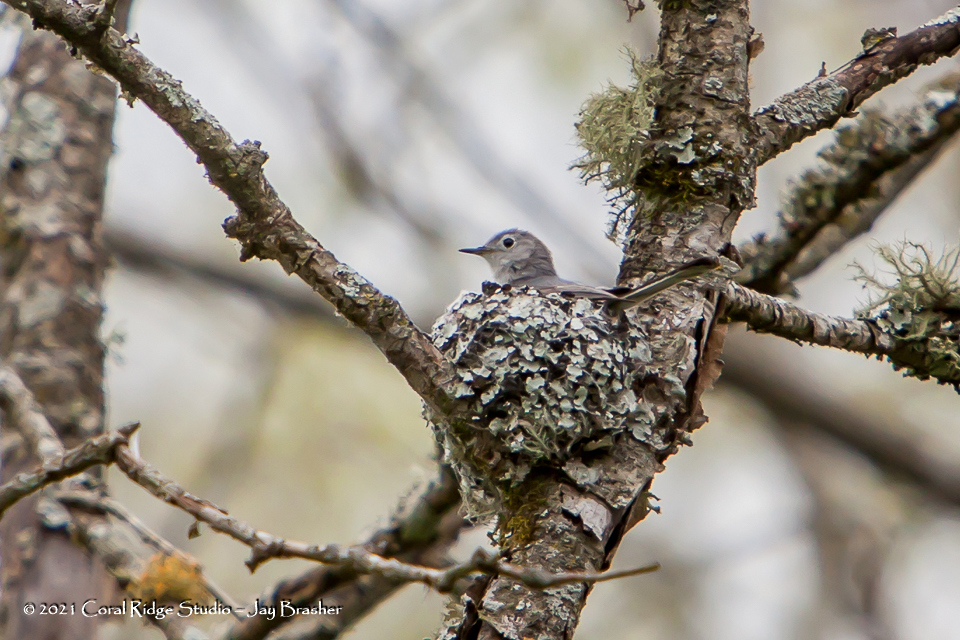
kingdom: Animalia
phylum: Chordata
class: Aves
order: Passeriformes
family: Polioptilidae
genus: Polioptila
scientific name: Polioptila caerulea
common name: Blue-gray gnatcatcher
